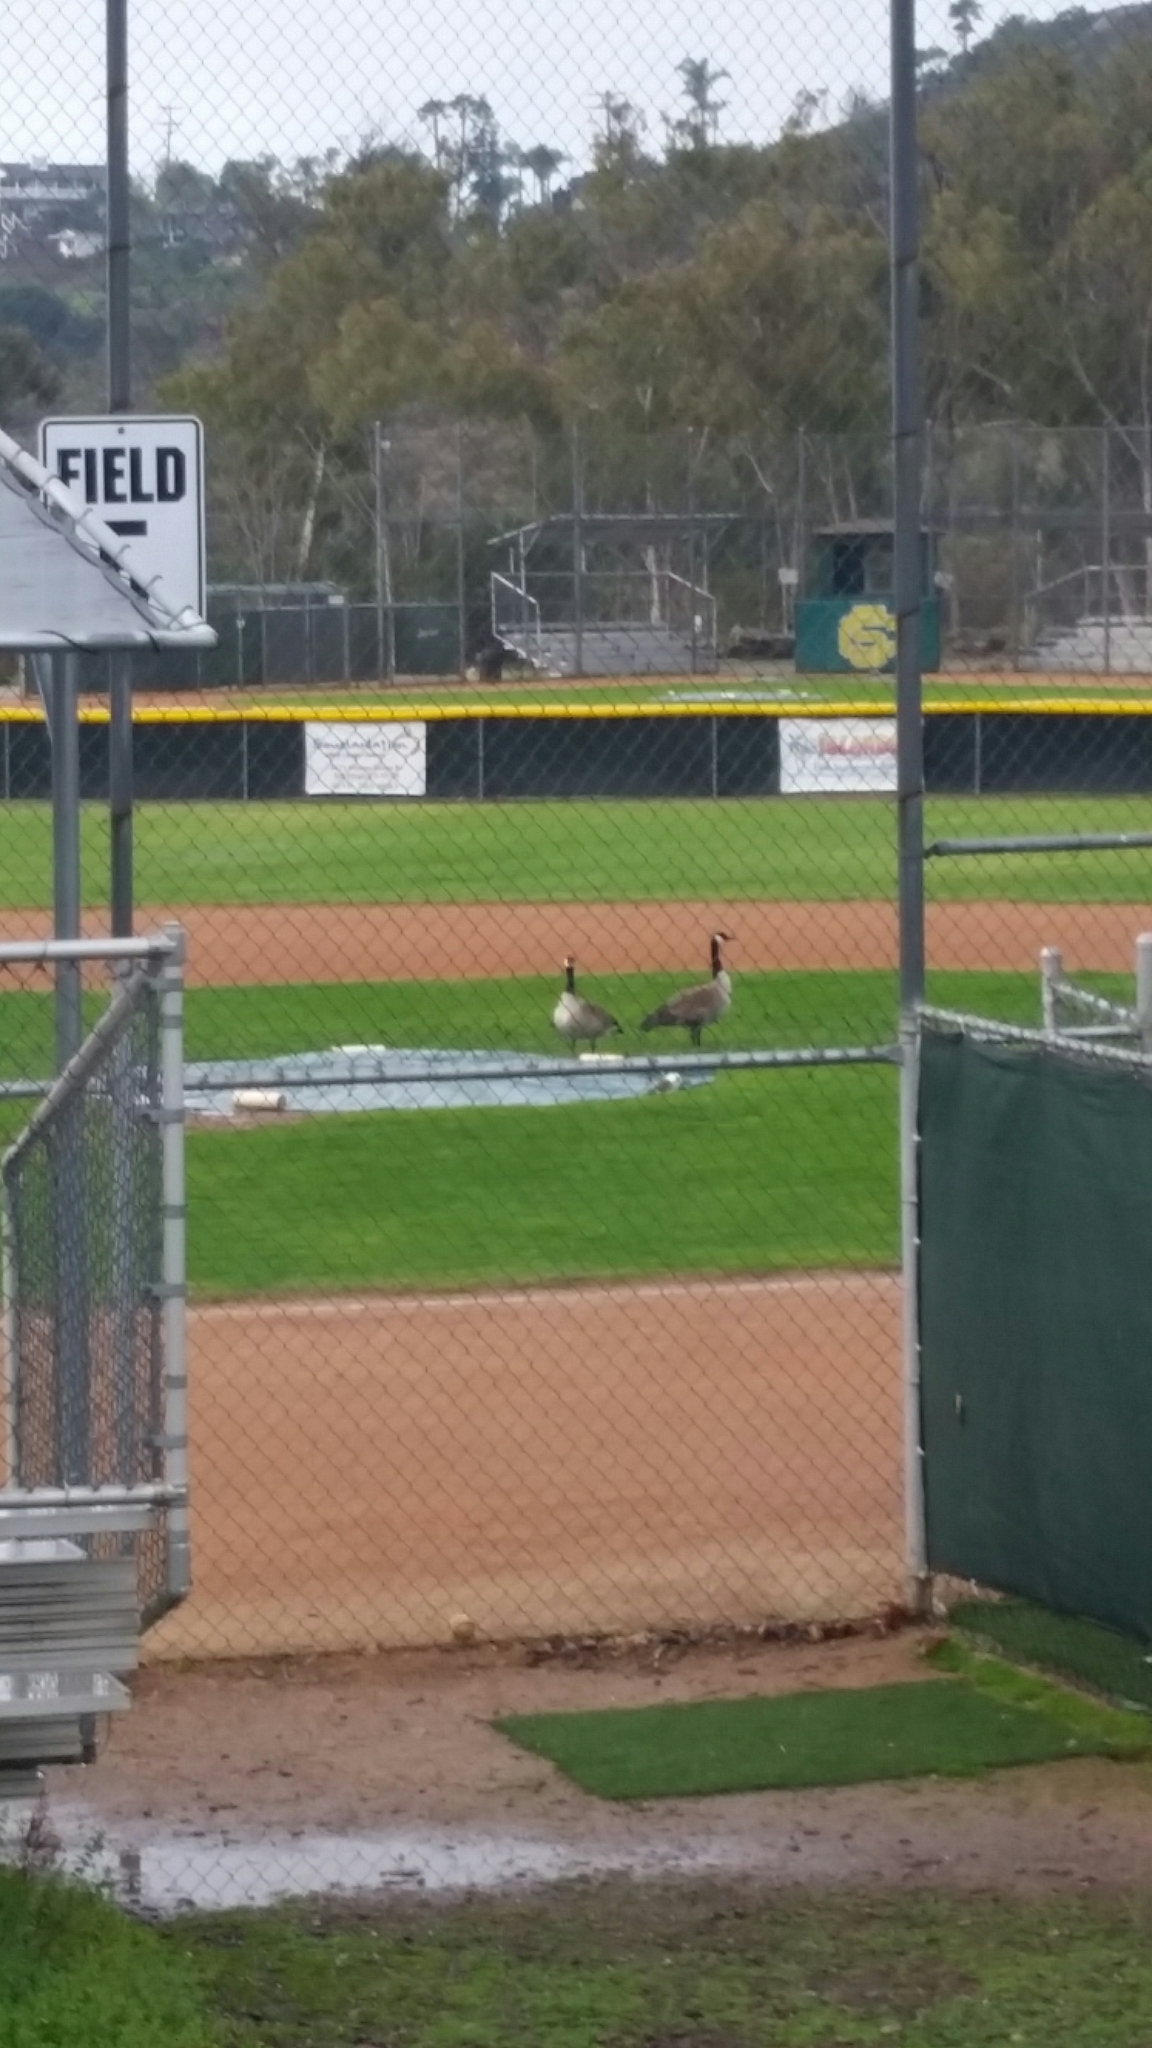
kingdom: Animalia
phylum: Chordata
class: Aves
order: Anseriformes
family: Anatidae
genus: Branta
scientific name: Branta canadensis
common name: Canada goose
